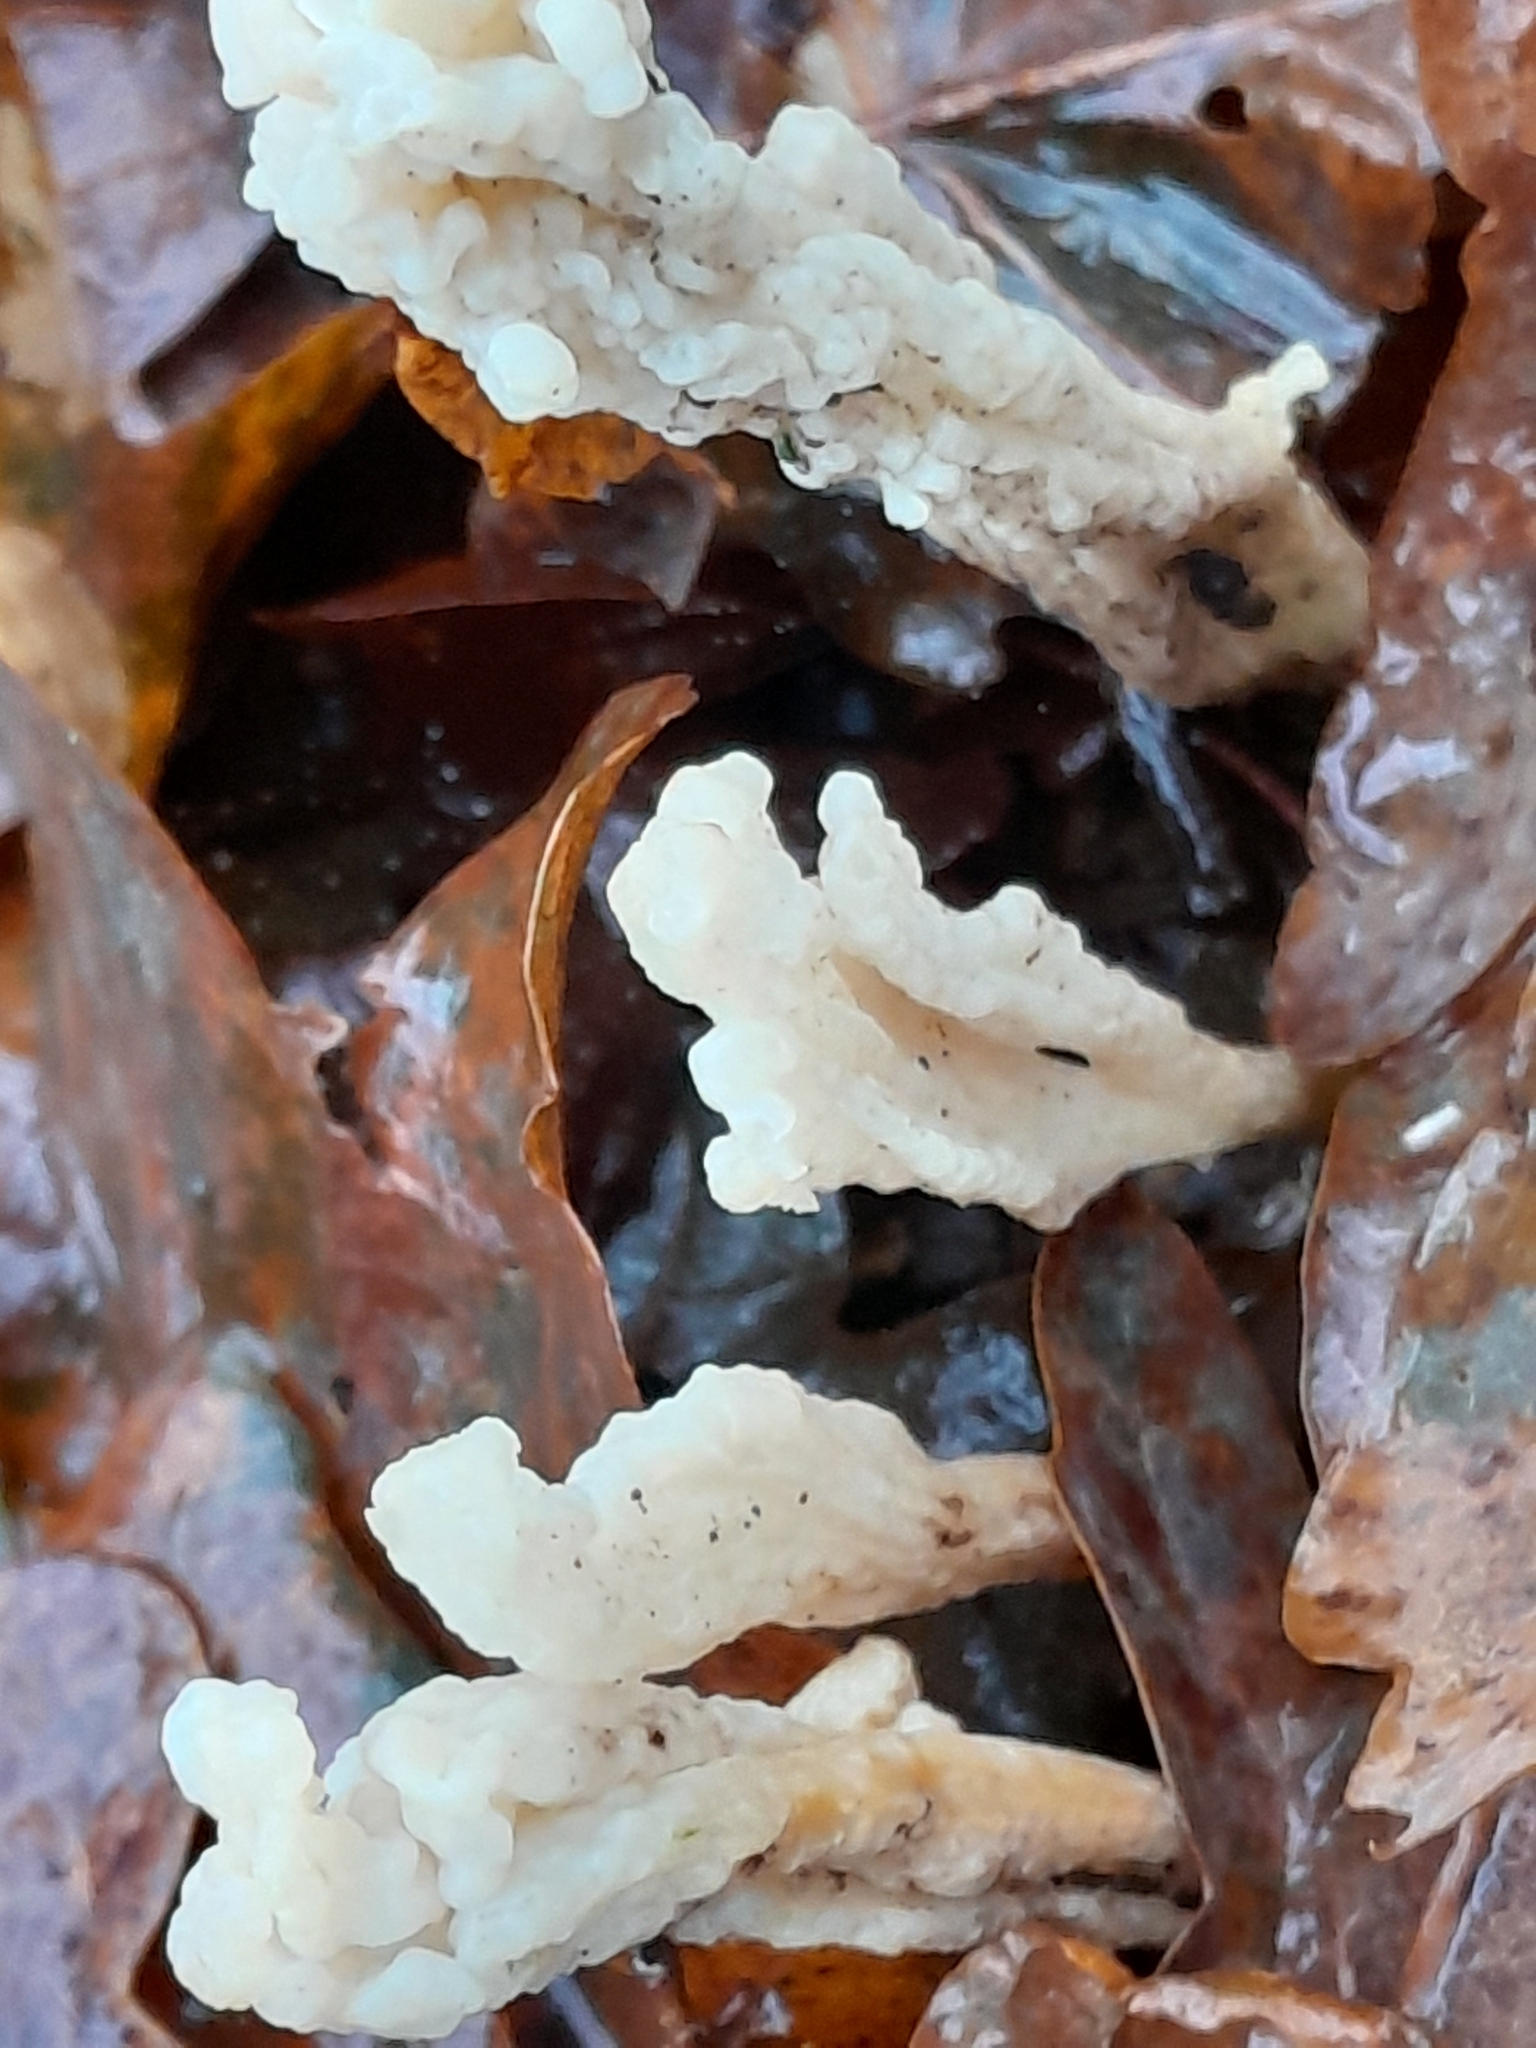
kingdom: Fungi
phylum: Basidiomycota
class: Agaricomycetes
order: Cantharellales
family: Hydnaceae
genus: Clavulina
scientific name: Clavulina rugosa
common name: Wrinkled club
